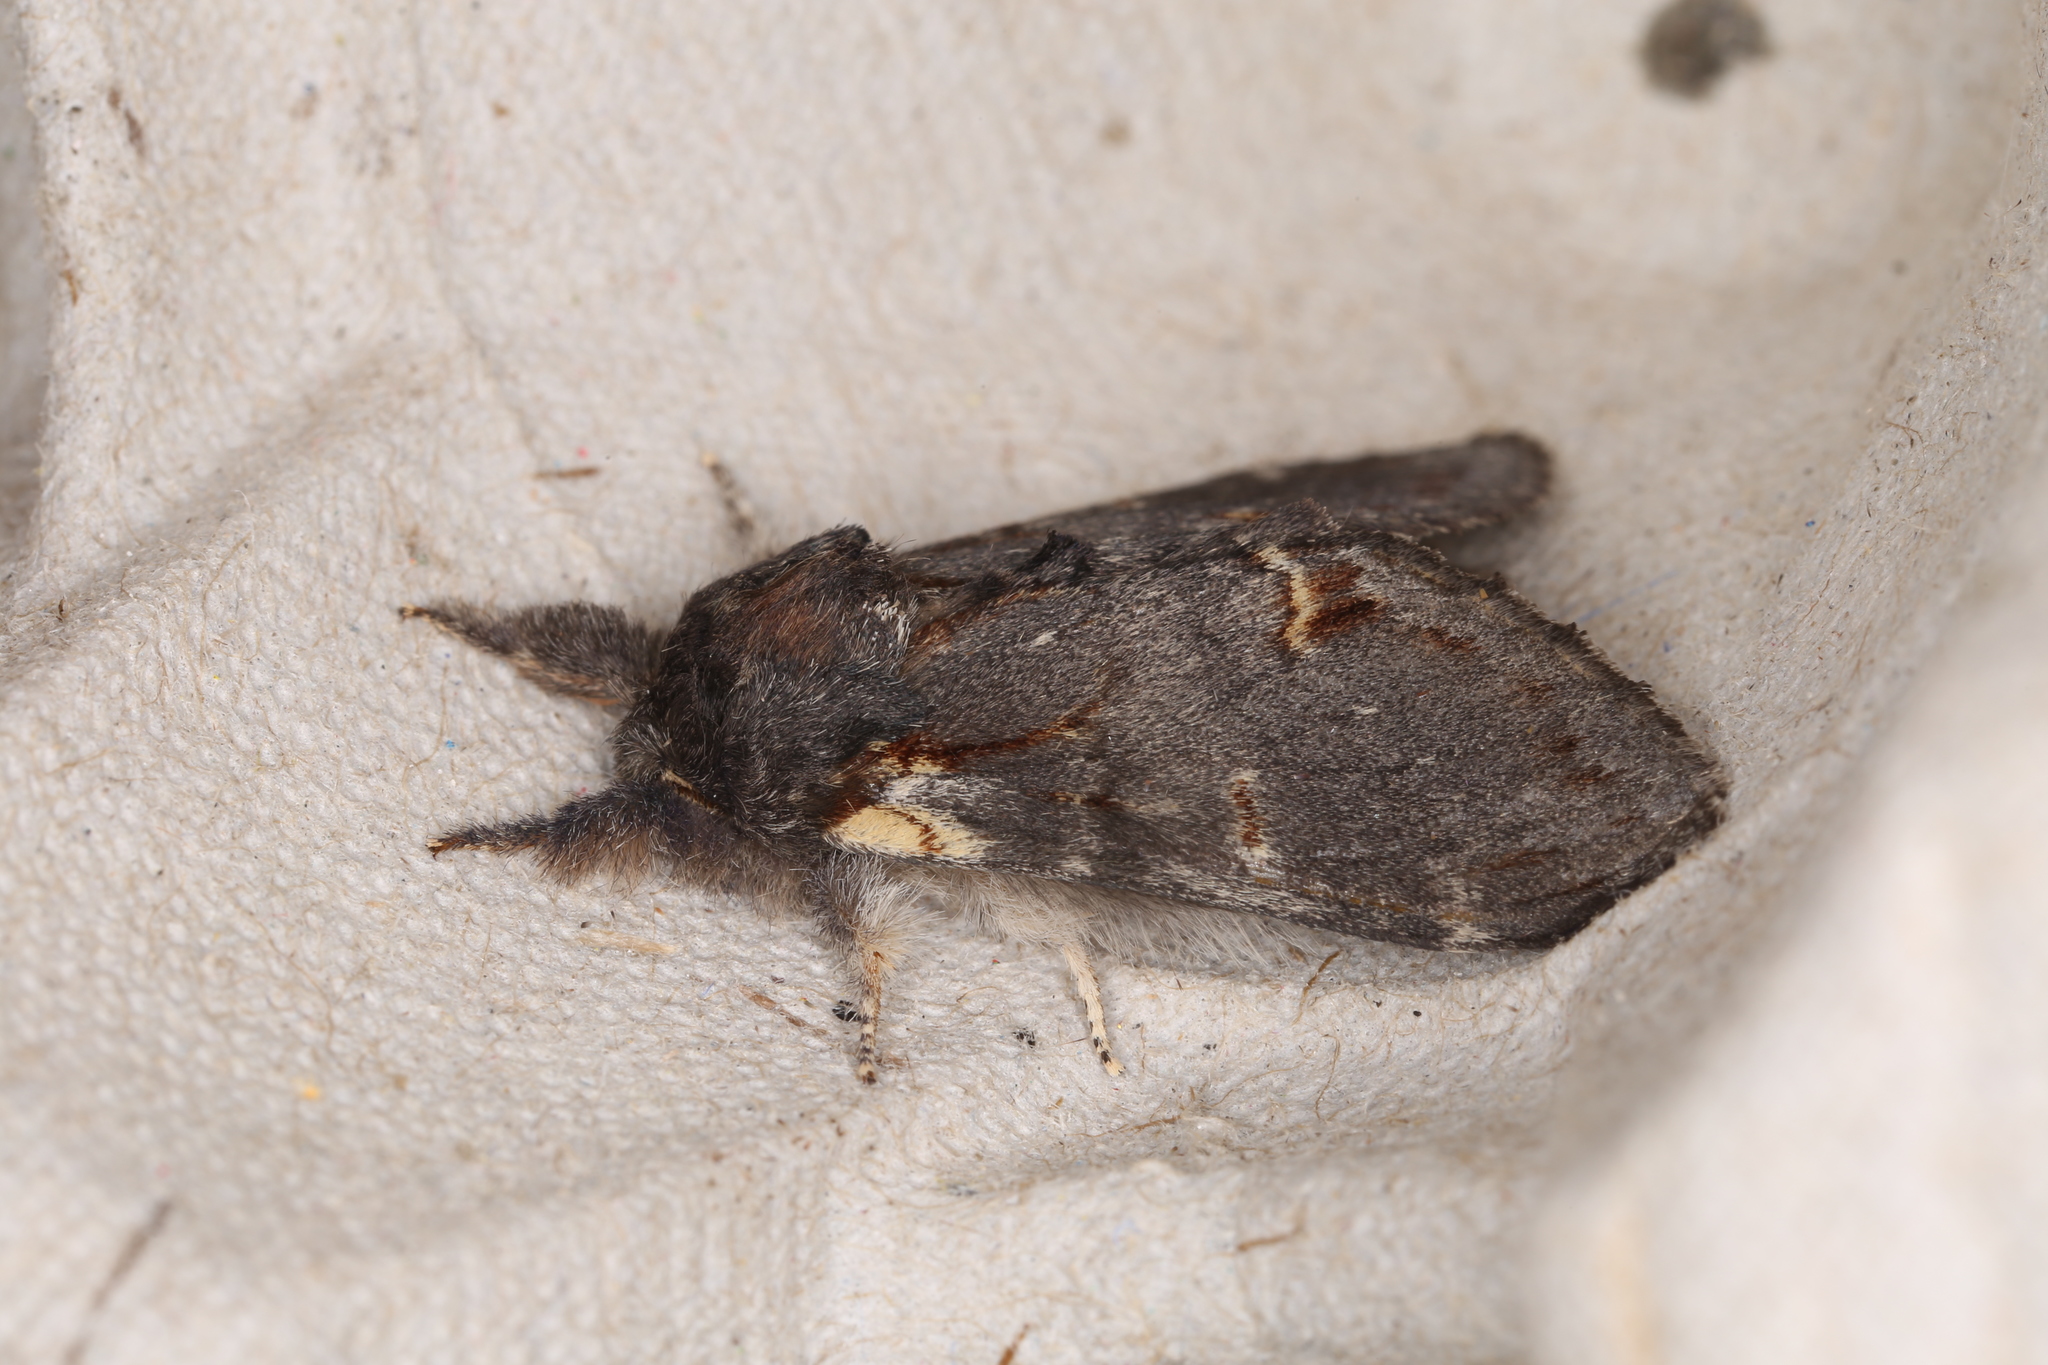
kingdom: Animalia
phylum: Arthropoda
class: Insecta
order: Lepidoptera
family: Notodontidae
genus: Notodonta
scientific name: Notodonta dromedarius
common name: Iron prominent
